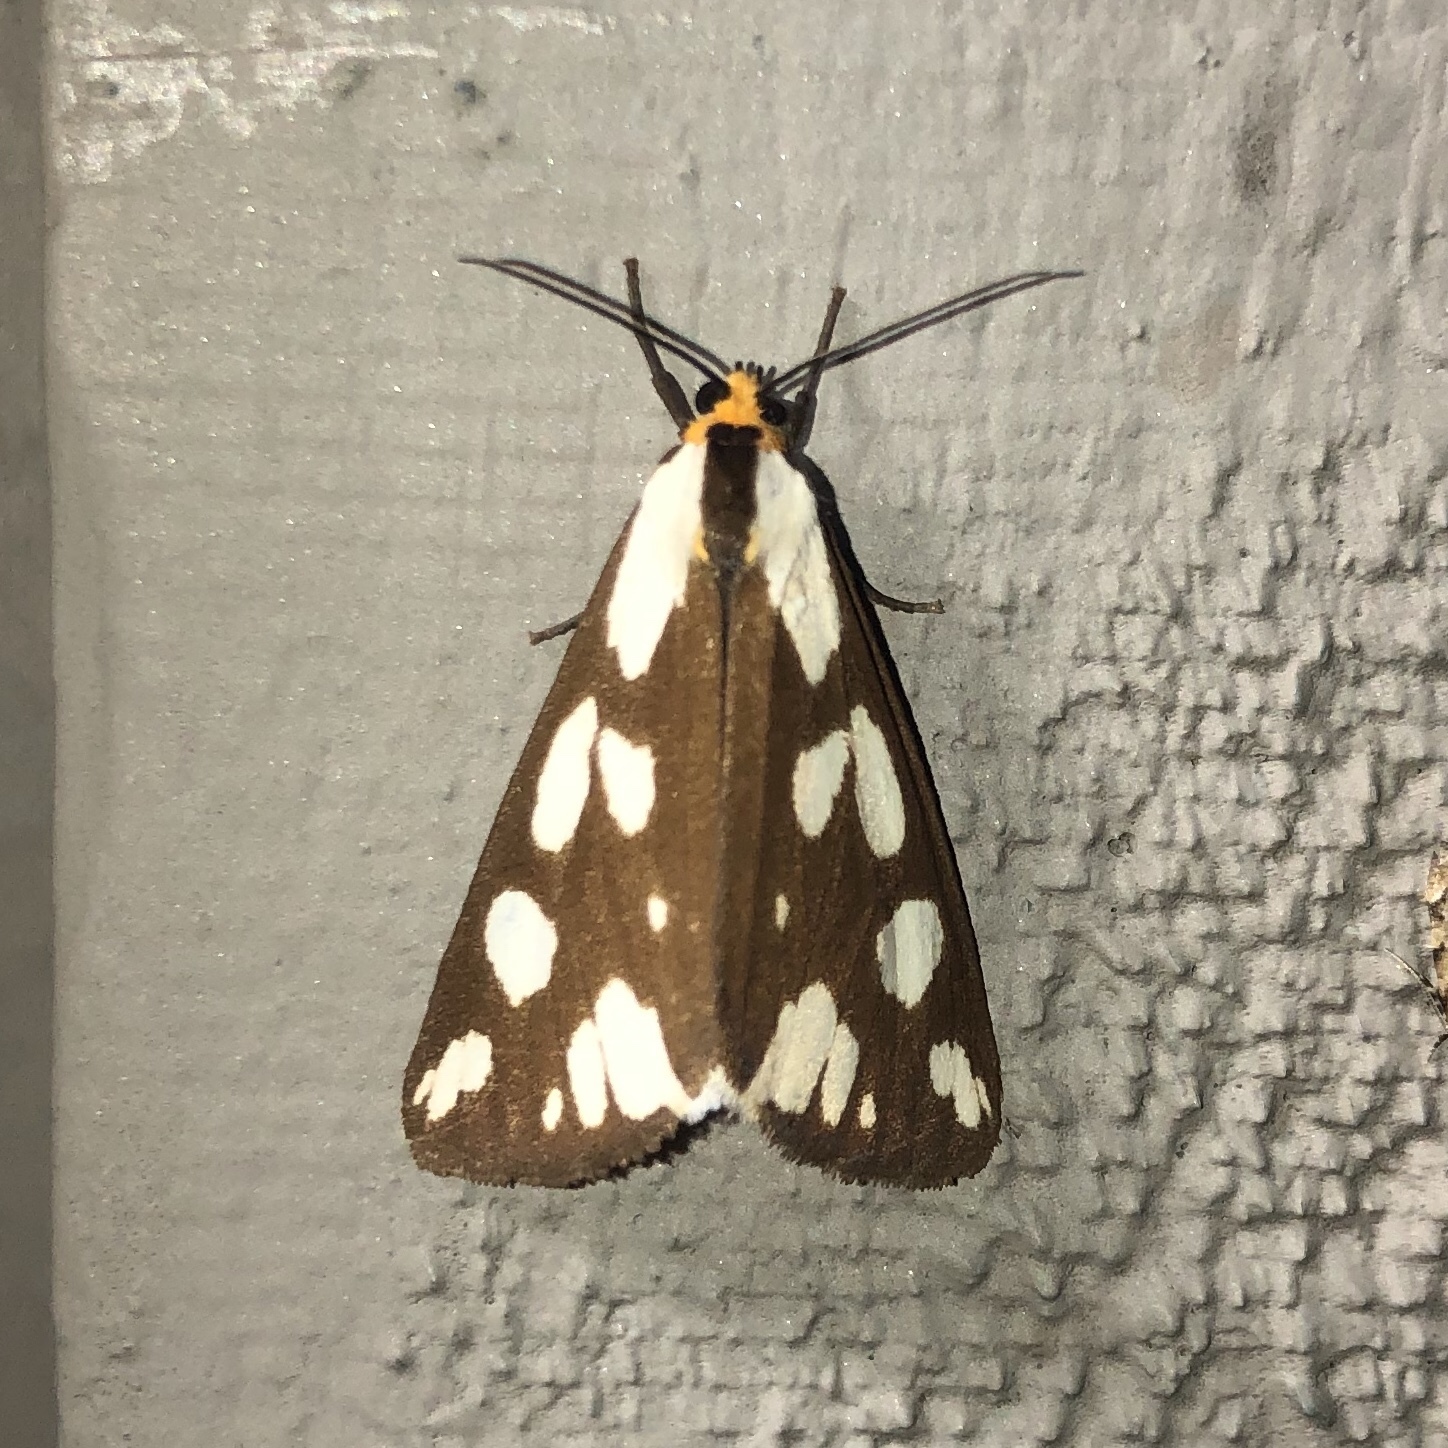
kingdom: Animalia
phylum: Arthropoda
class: Insecta
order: Lepidoptera
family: Erebidae
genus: Haploa
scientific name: Haploa confusa
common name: Confused haploa moth
